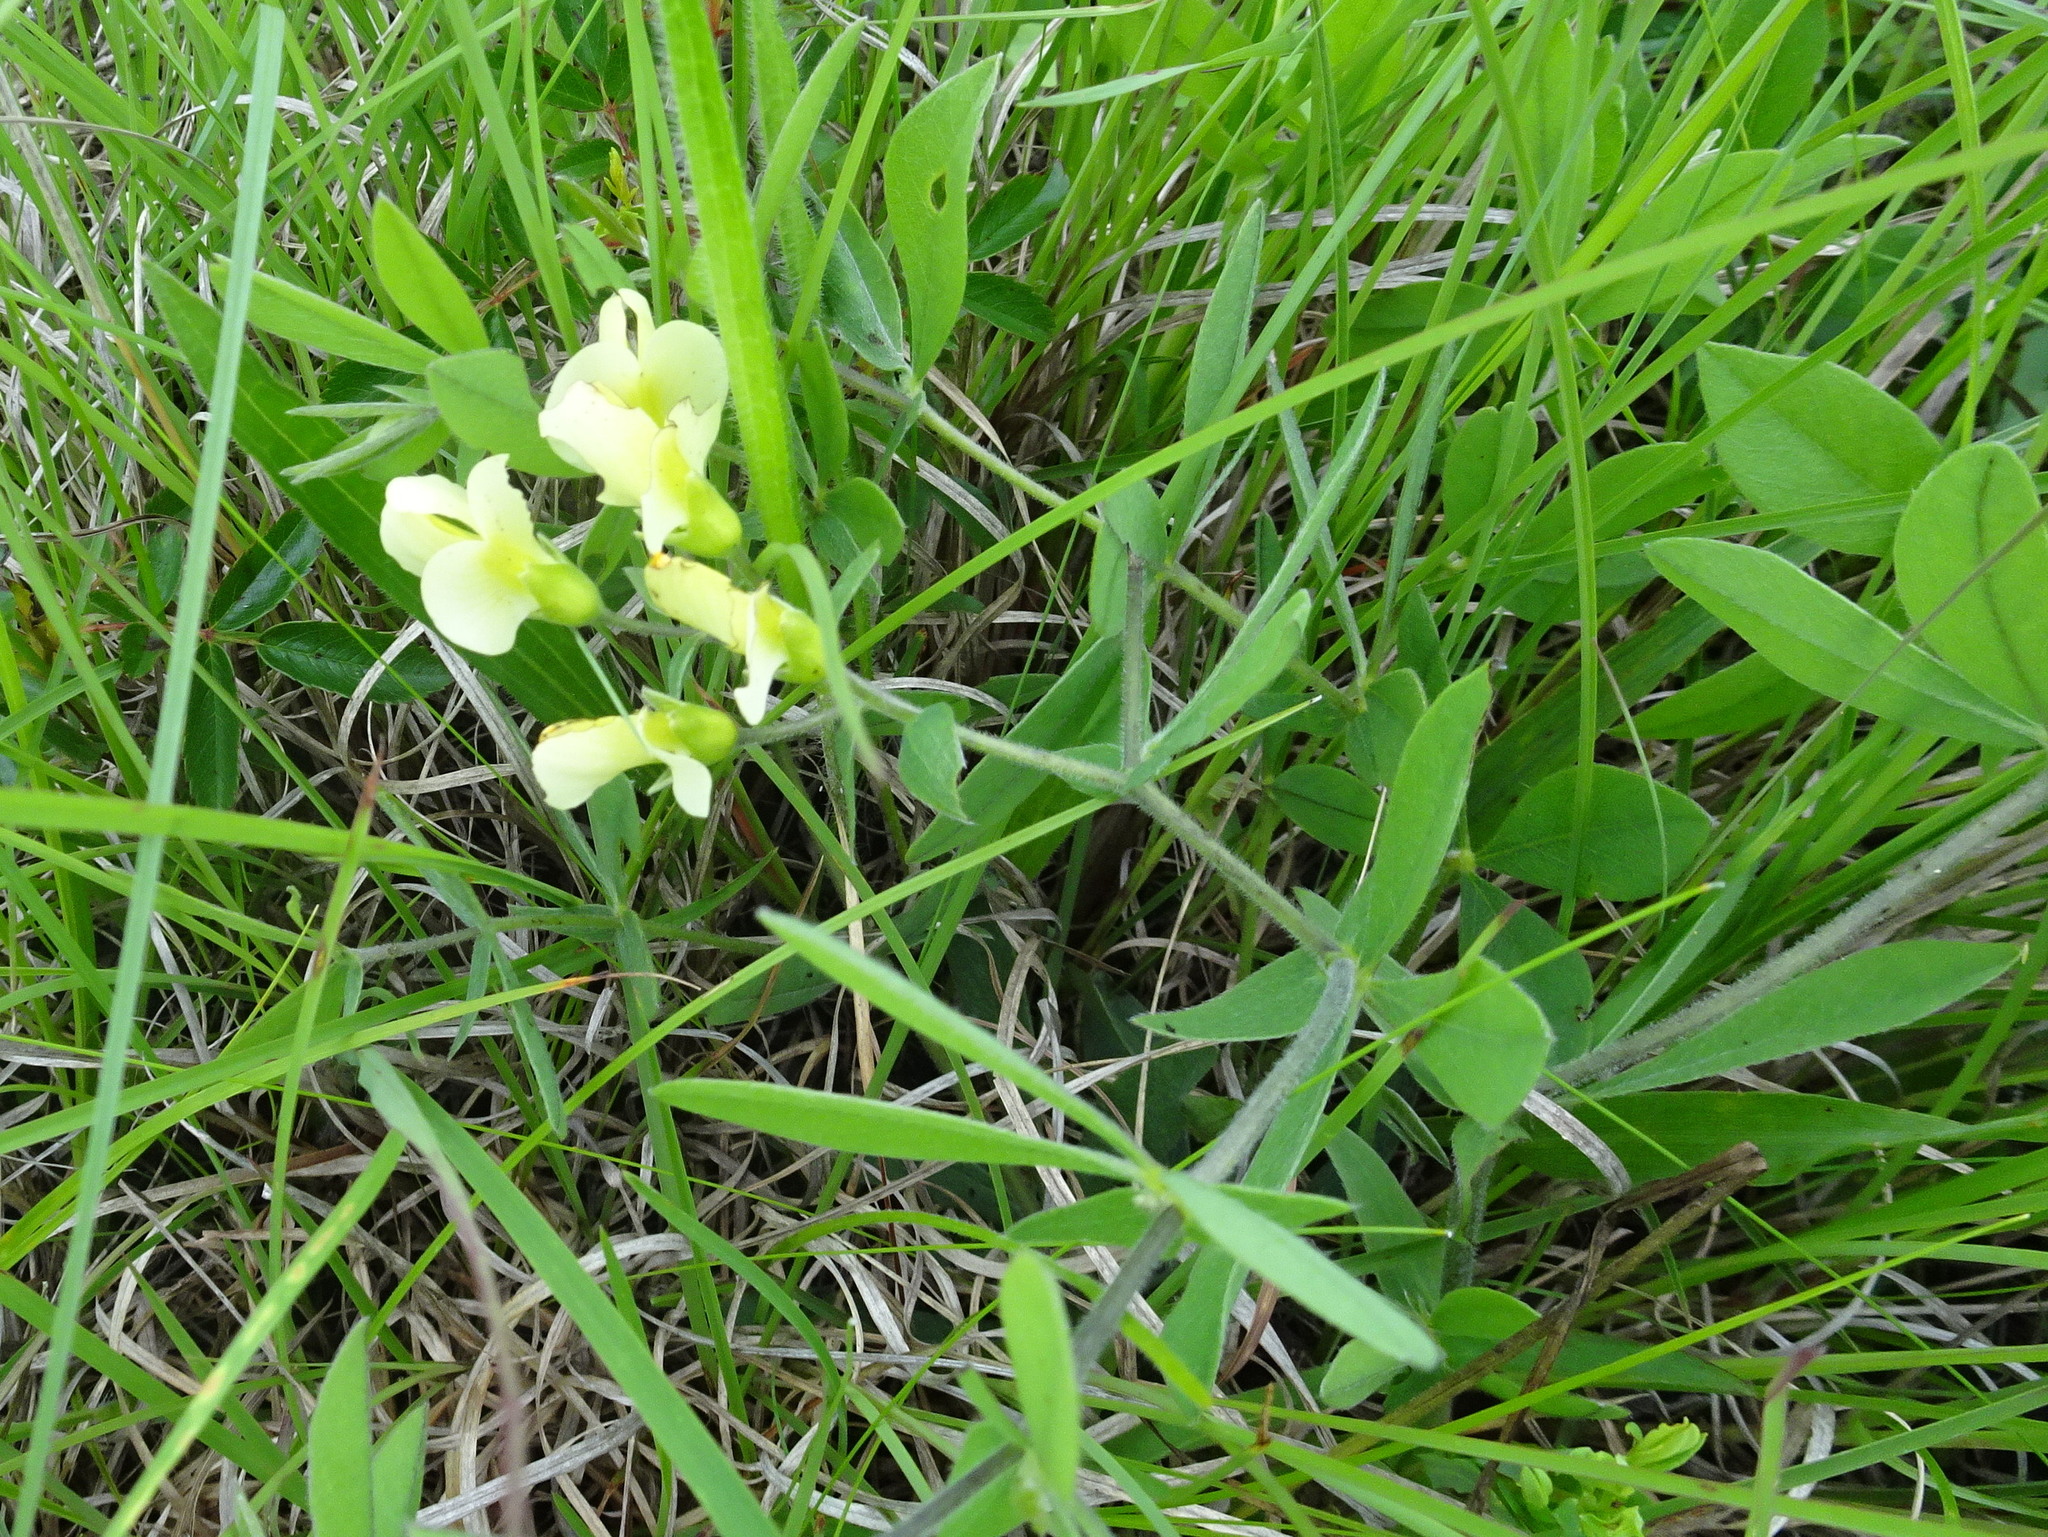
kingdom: Plantae
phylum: Tracheophyta
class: Magnoliopsida
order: Fabales
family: Fabaceae
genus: Baptisia
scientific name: Baptisia bracteata
